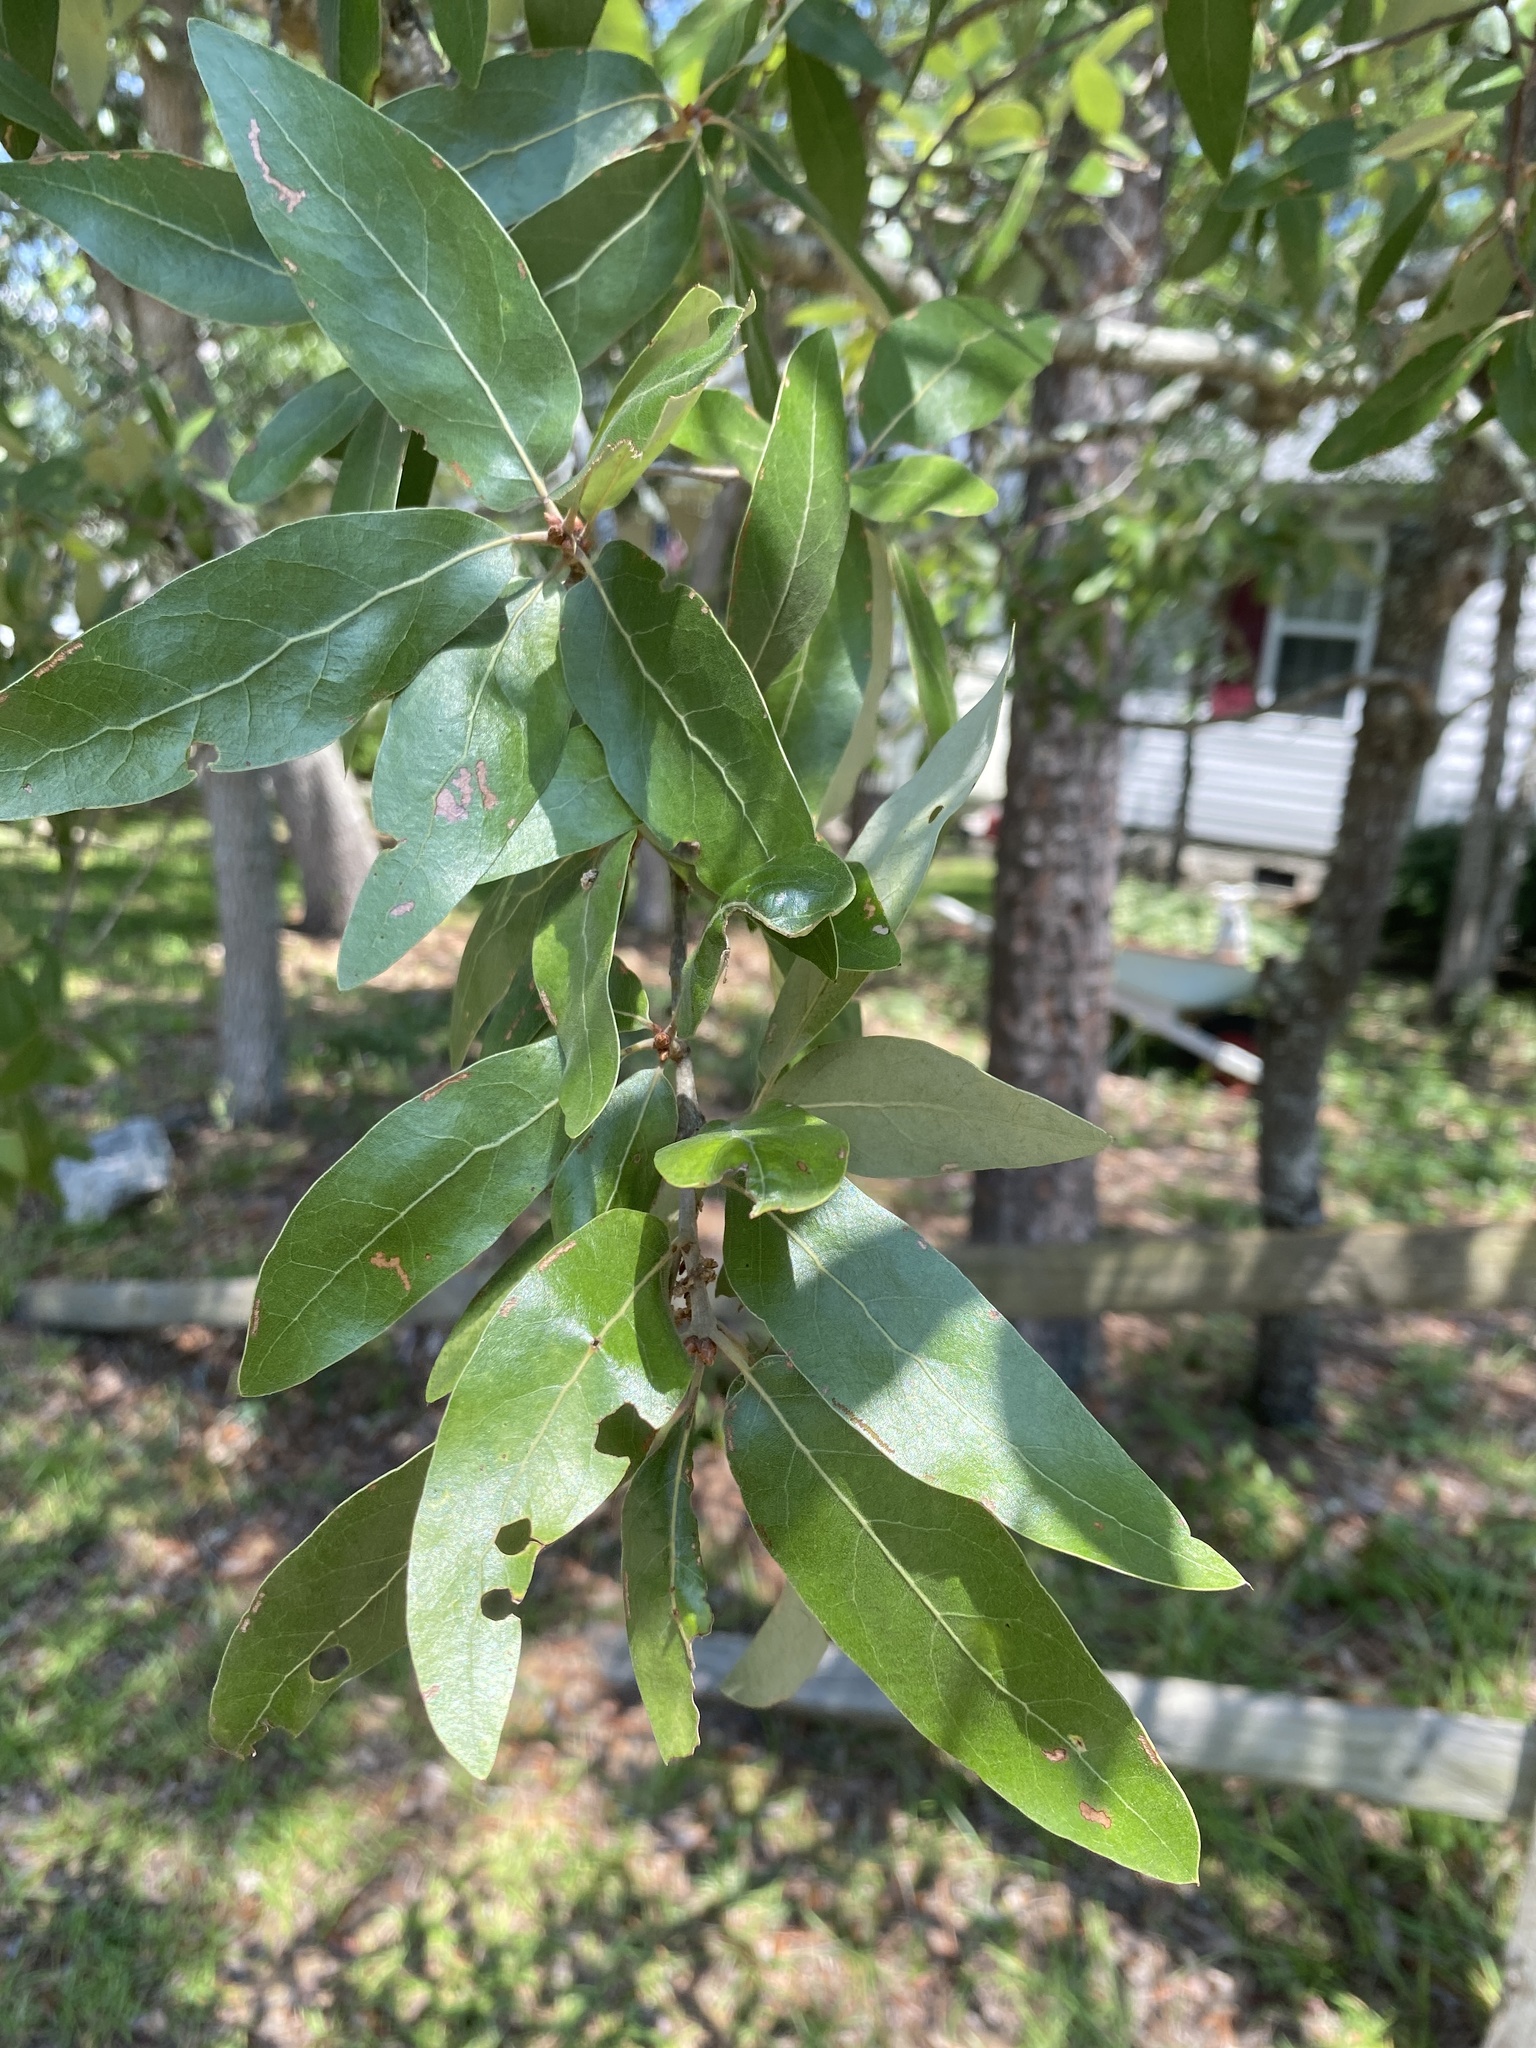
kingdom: Plantae
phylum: Tracheophyta
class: Magnoliopsida
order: Fagales
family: Fagaceae
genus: Quercus
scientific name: Quercus incana
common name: Bluejack oak
